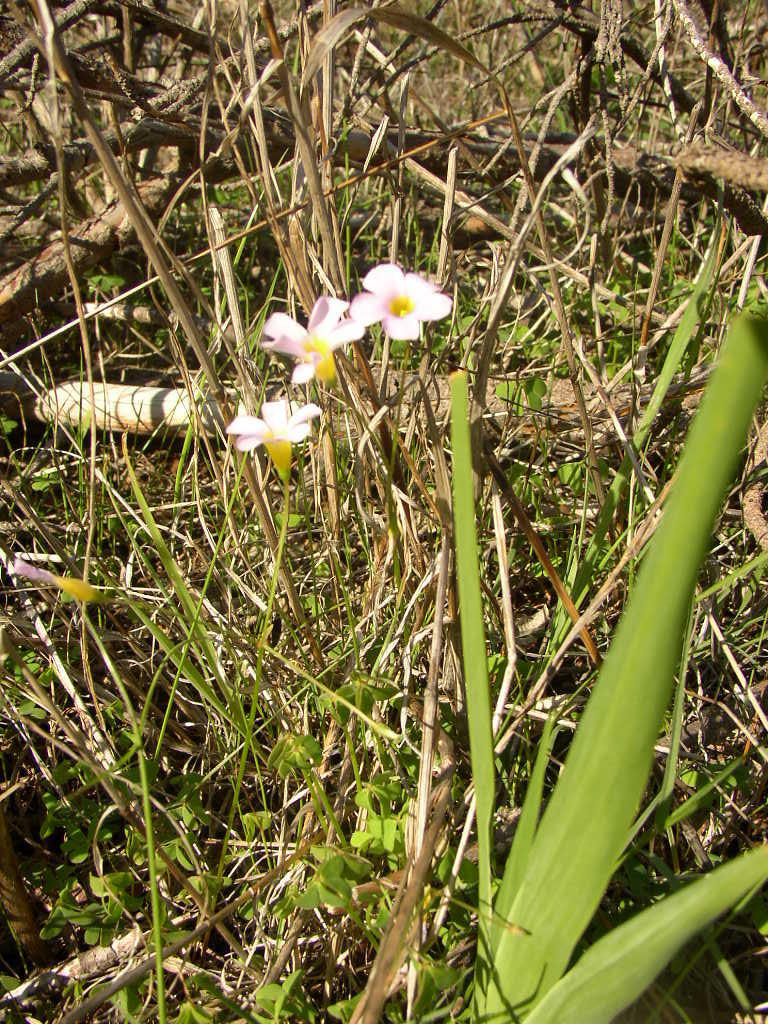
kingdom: Plantae
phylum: Tracheophyta
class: Magnoliopsida
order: Oxalidales
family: Oxalidaceae
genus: Oxalis
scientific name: Oxalis caprina
